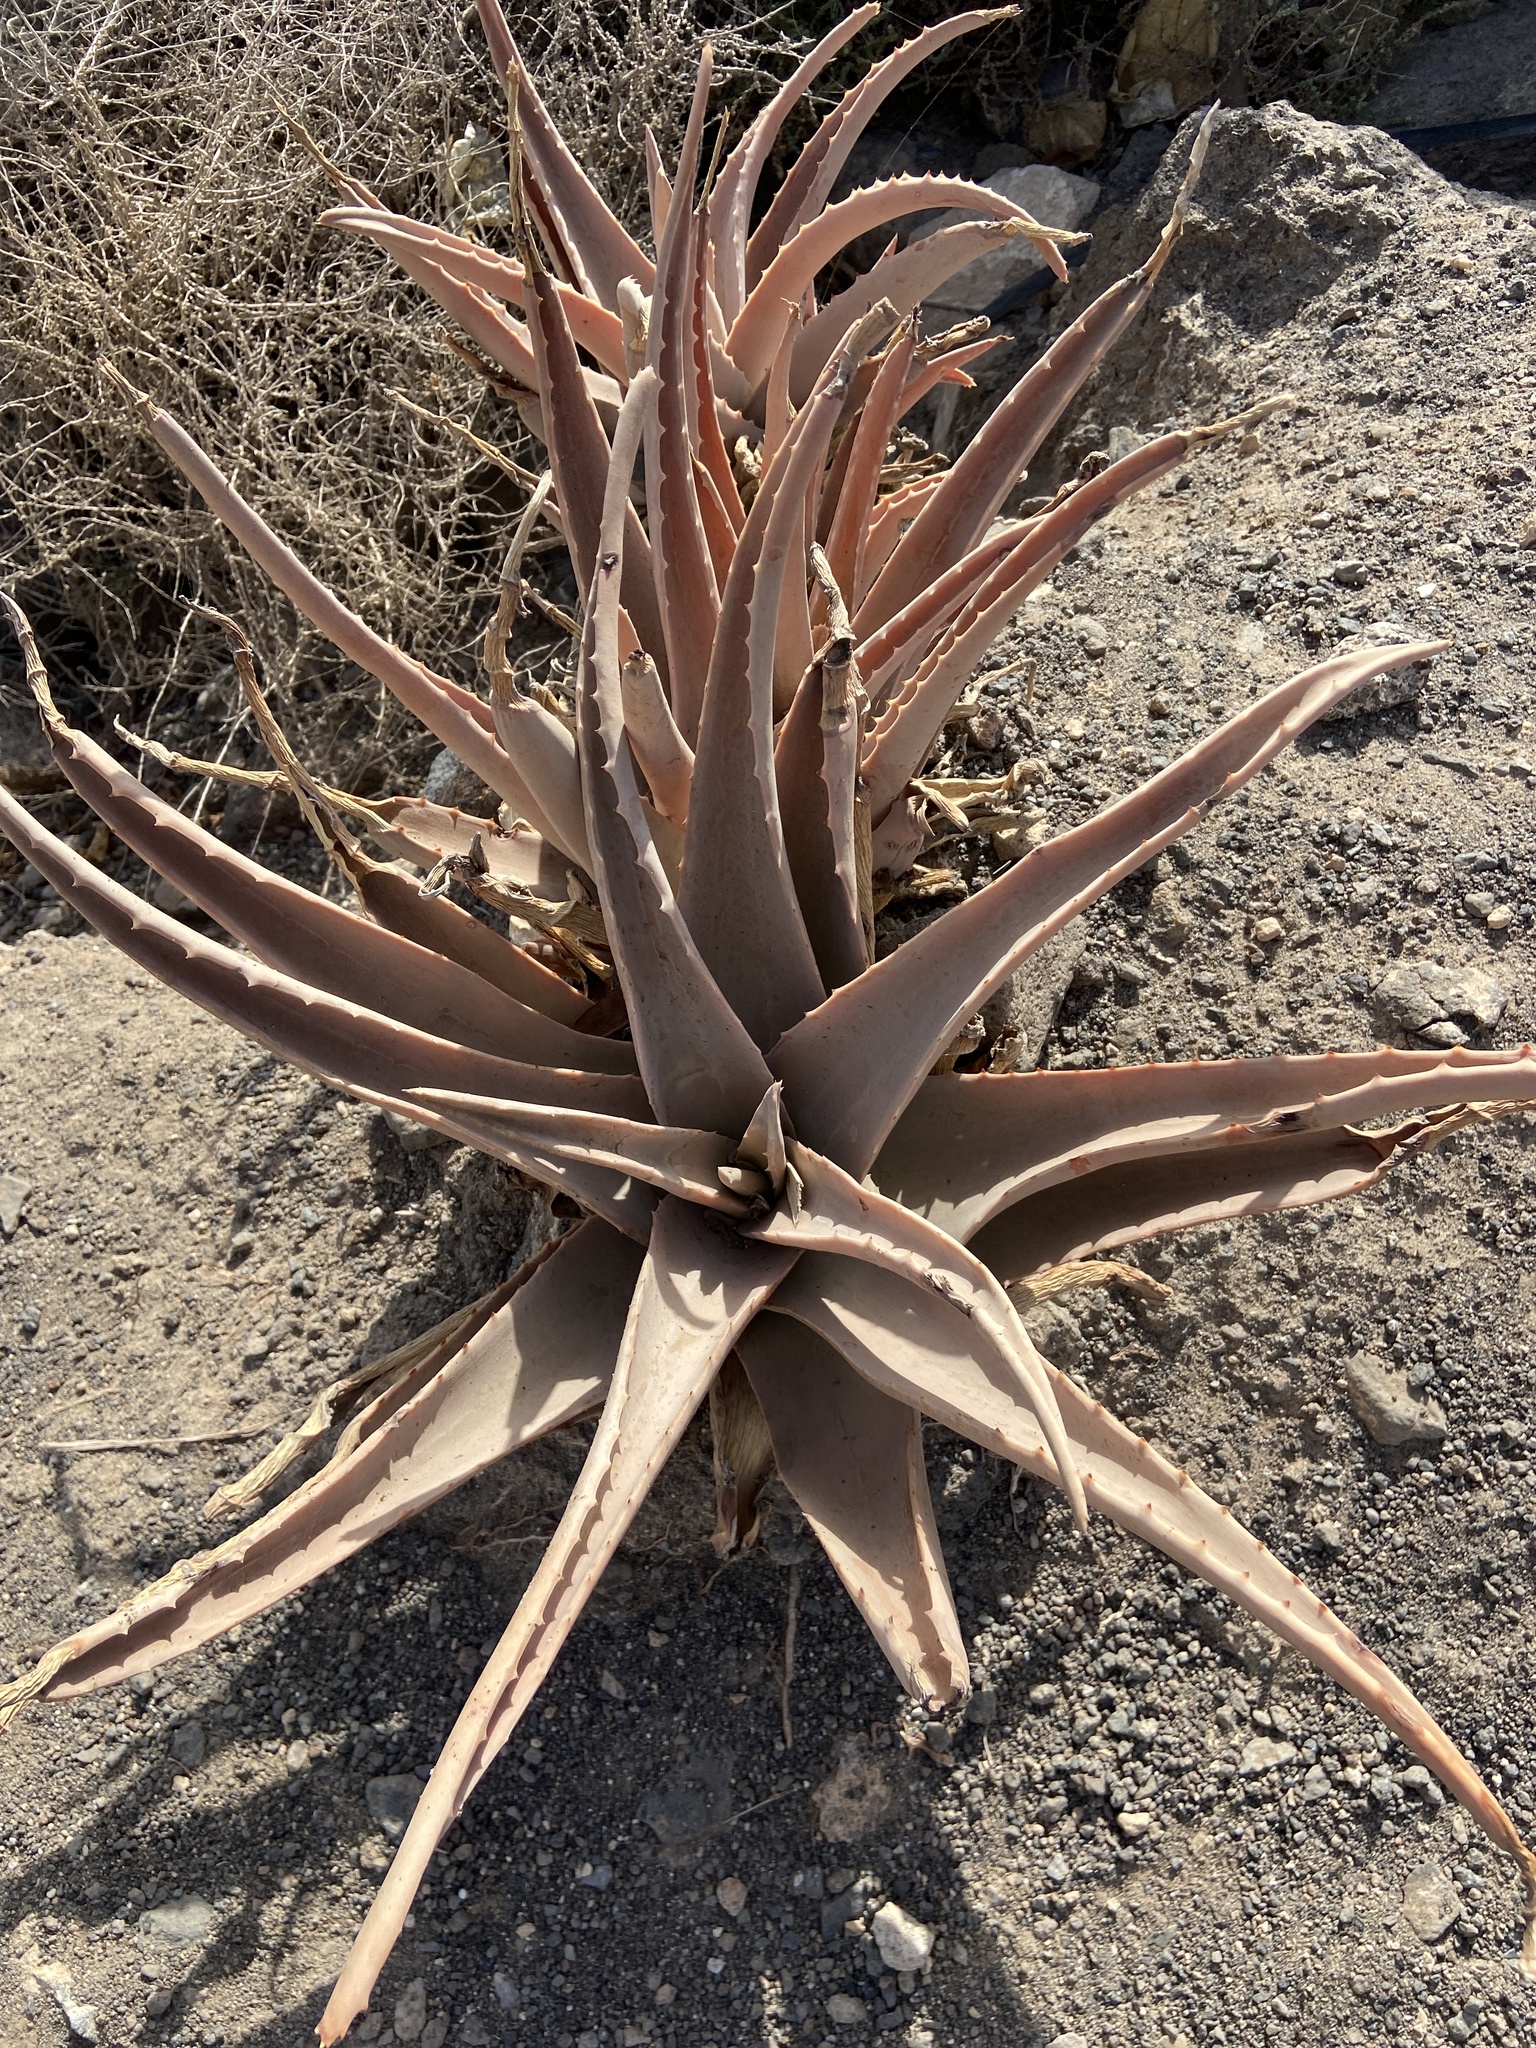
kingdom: Plantae
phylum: Tracheophyta
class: Liliopsida
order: Asparagales
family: Asphodelaceae
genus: Aloe
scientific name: Aloe vera
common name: Barbados aloe
